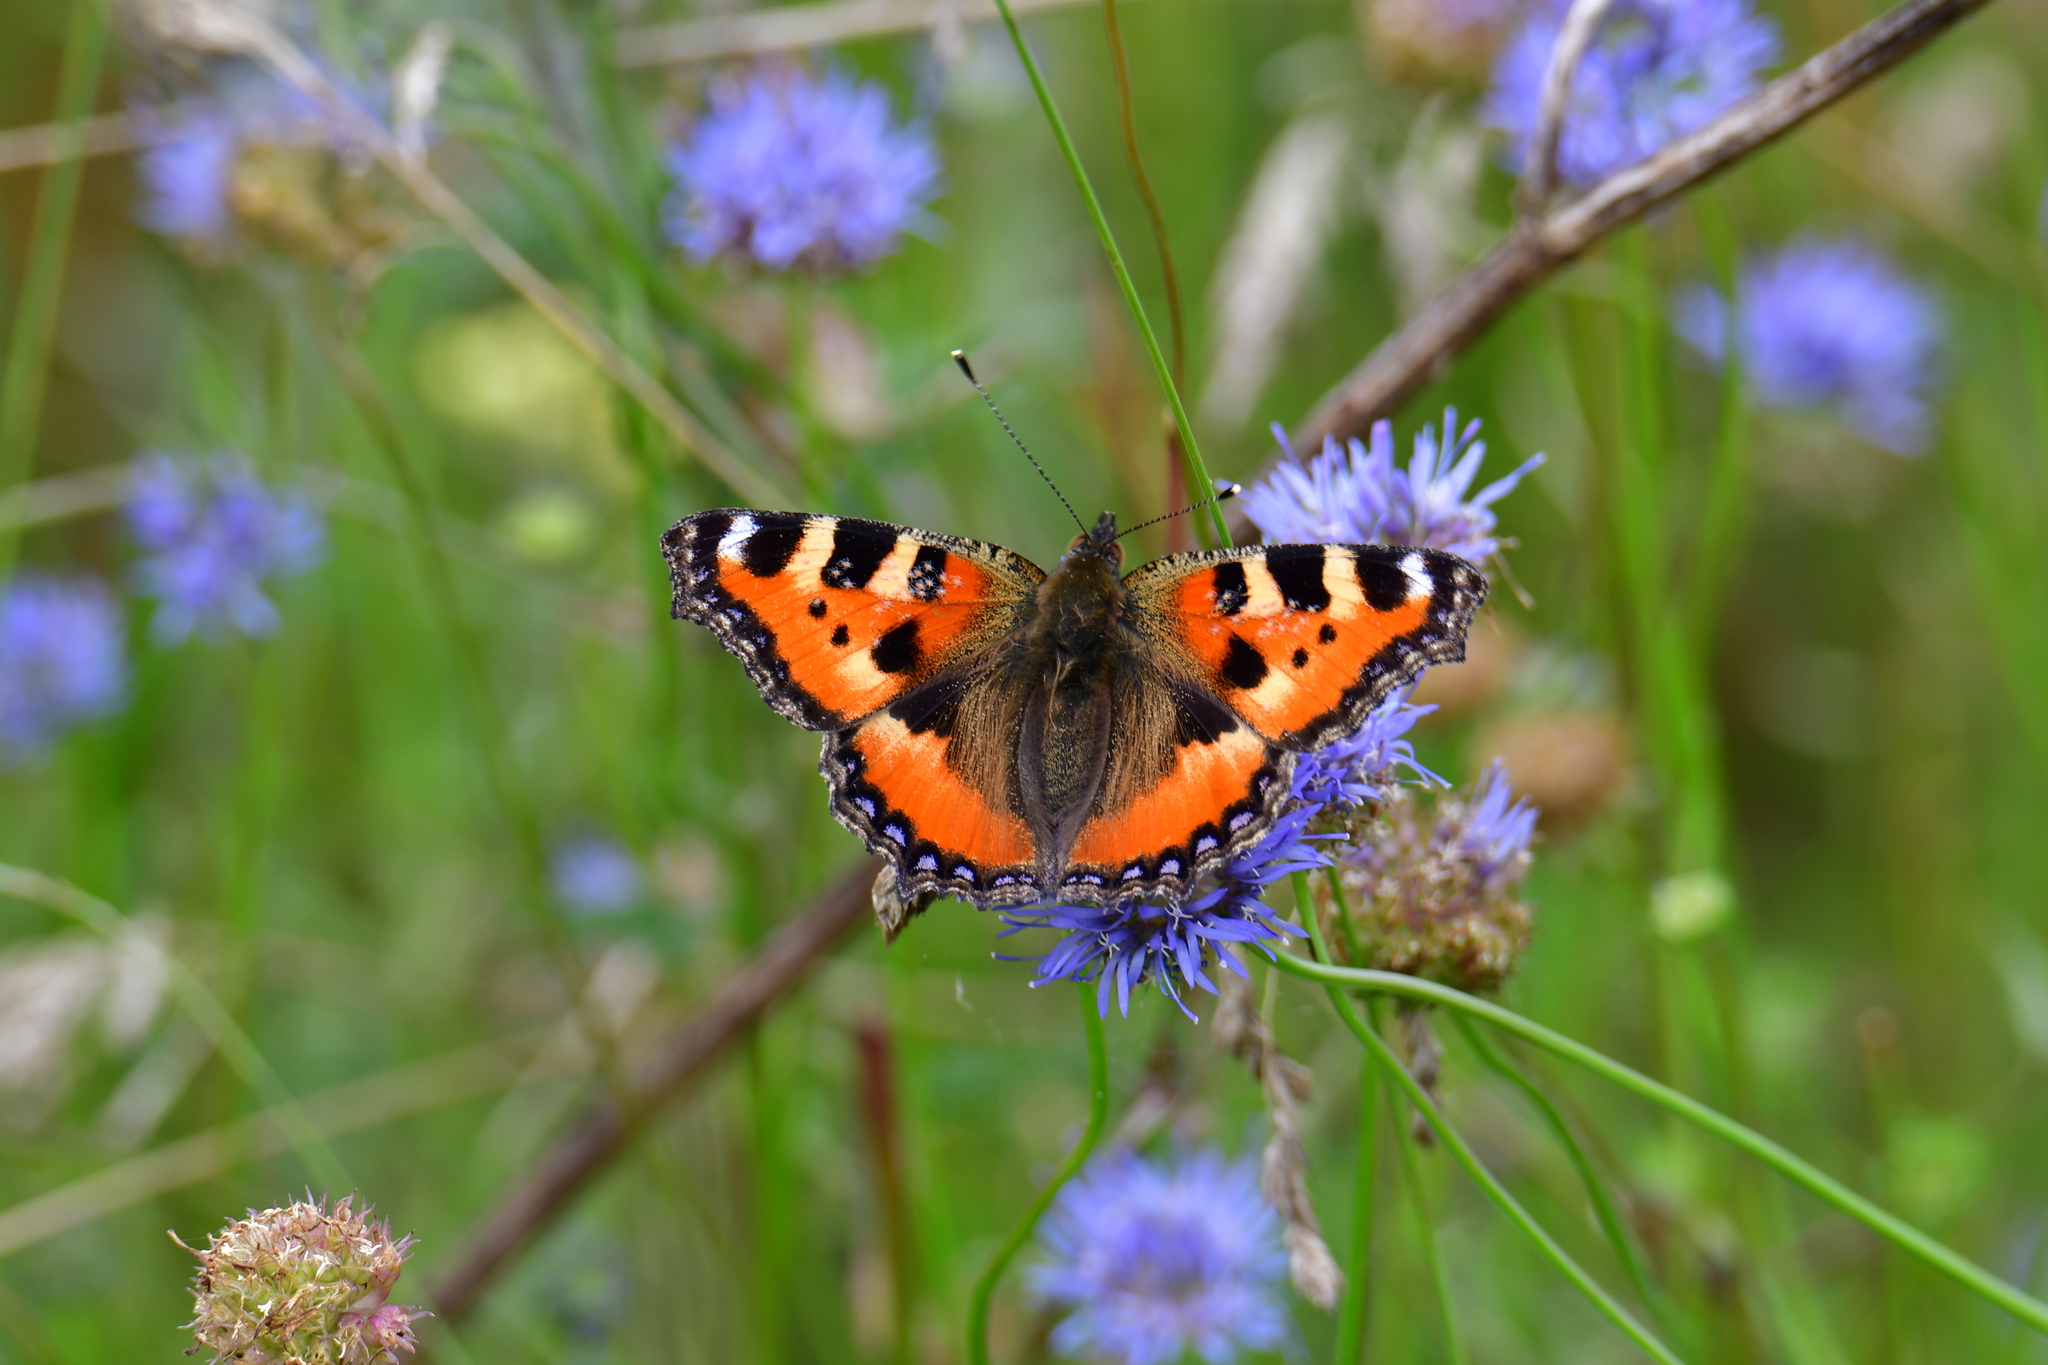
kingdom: Animalia
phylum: Arthropoda
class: Insecta
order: Lepidoptera
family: Nymphalidae
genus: Aglais
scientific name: Aglais urticae
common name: Small tortoiseshell
